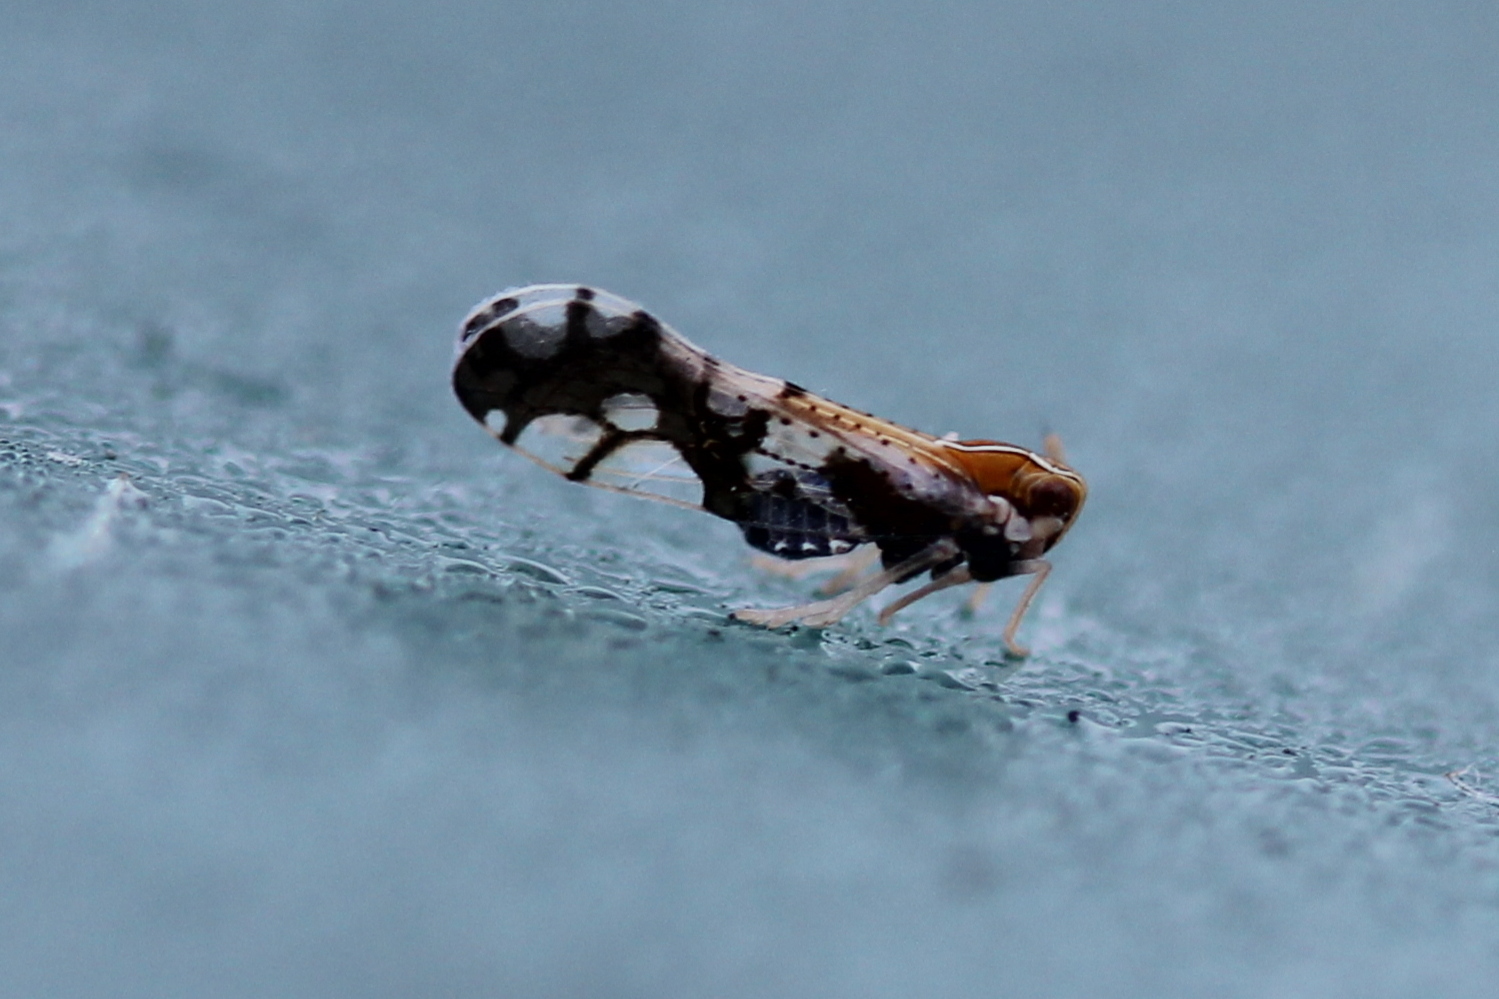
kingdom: Animalia
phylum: Arthropoda
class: Insecta
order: Hemiptera
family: Delphacidae
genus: Liburniella
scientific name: Liburniella ornata
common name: Ornate planthopper
